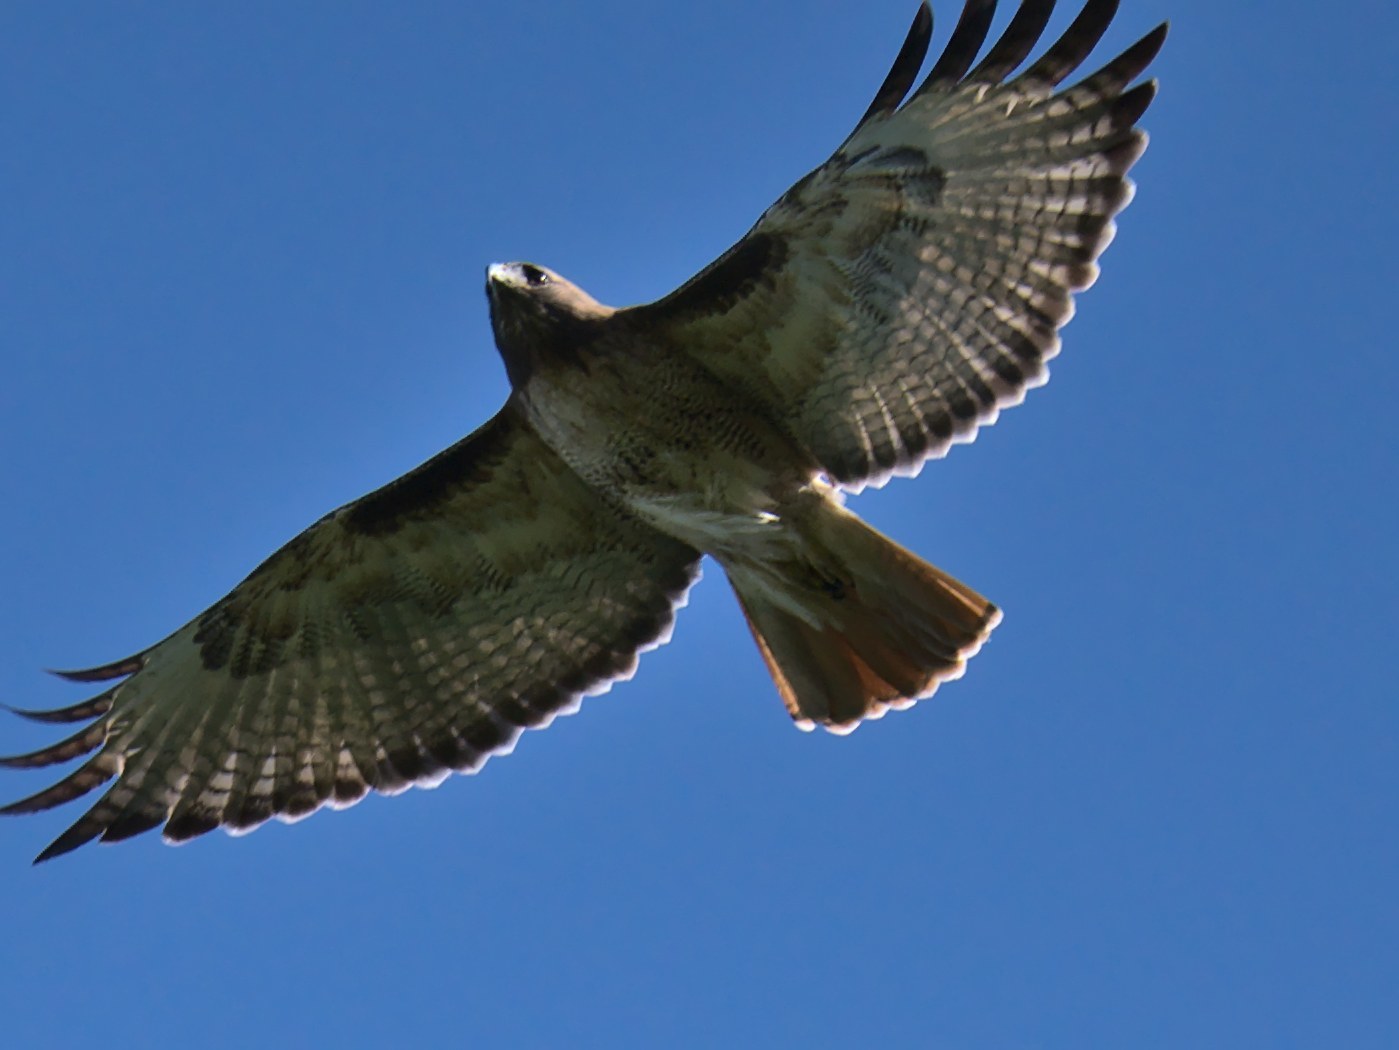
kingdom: Animalia
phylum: Chordata
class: Aves
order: Accipitriformes
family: Accipitridae
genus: Buteo
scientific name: Buteo jamaicensis
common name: Red-tailed hawk
